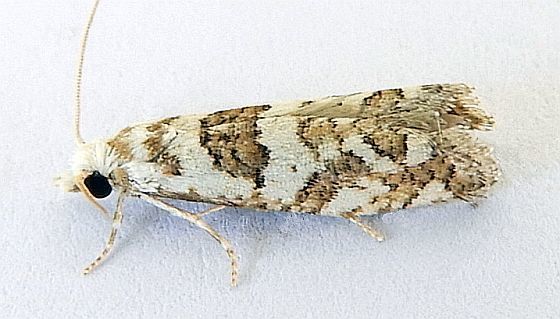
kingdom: Animalia
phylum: Arthropoda
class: Insecta
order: Lepidoptera
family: Tortricidae
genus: Pelochrista
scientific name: Pelochrista hazelana
